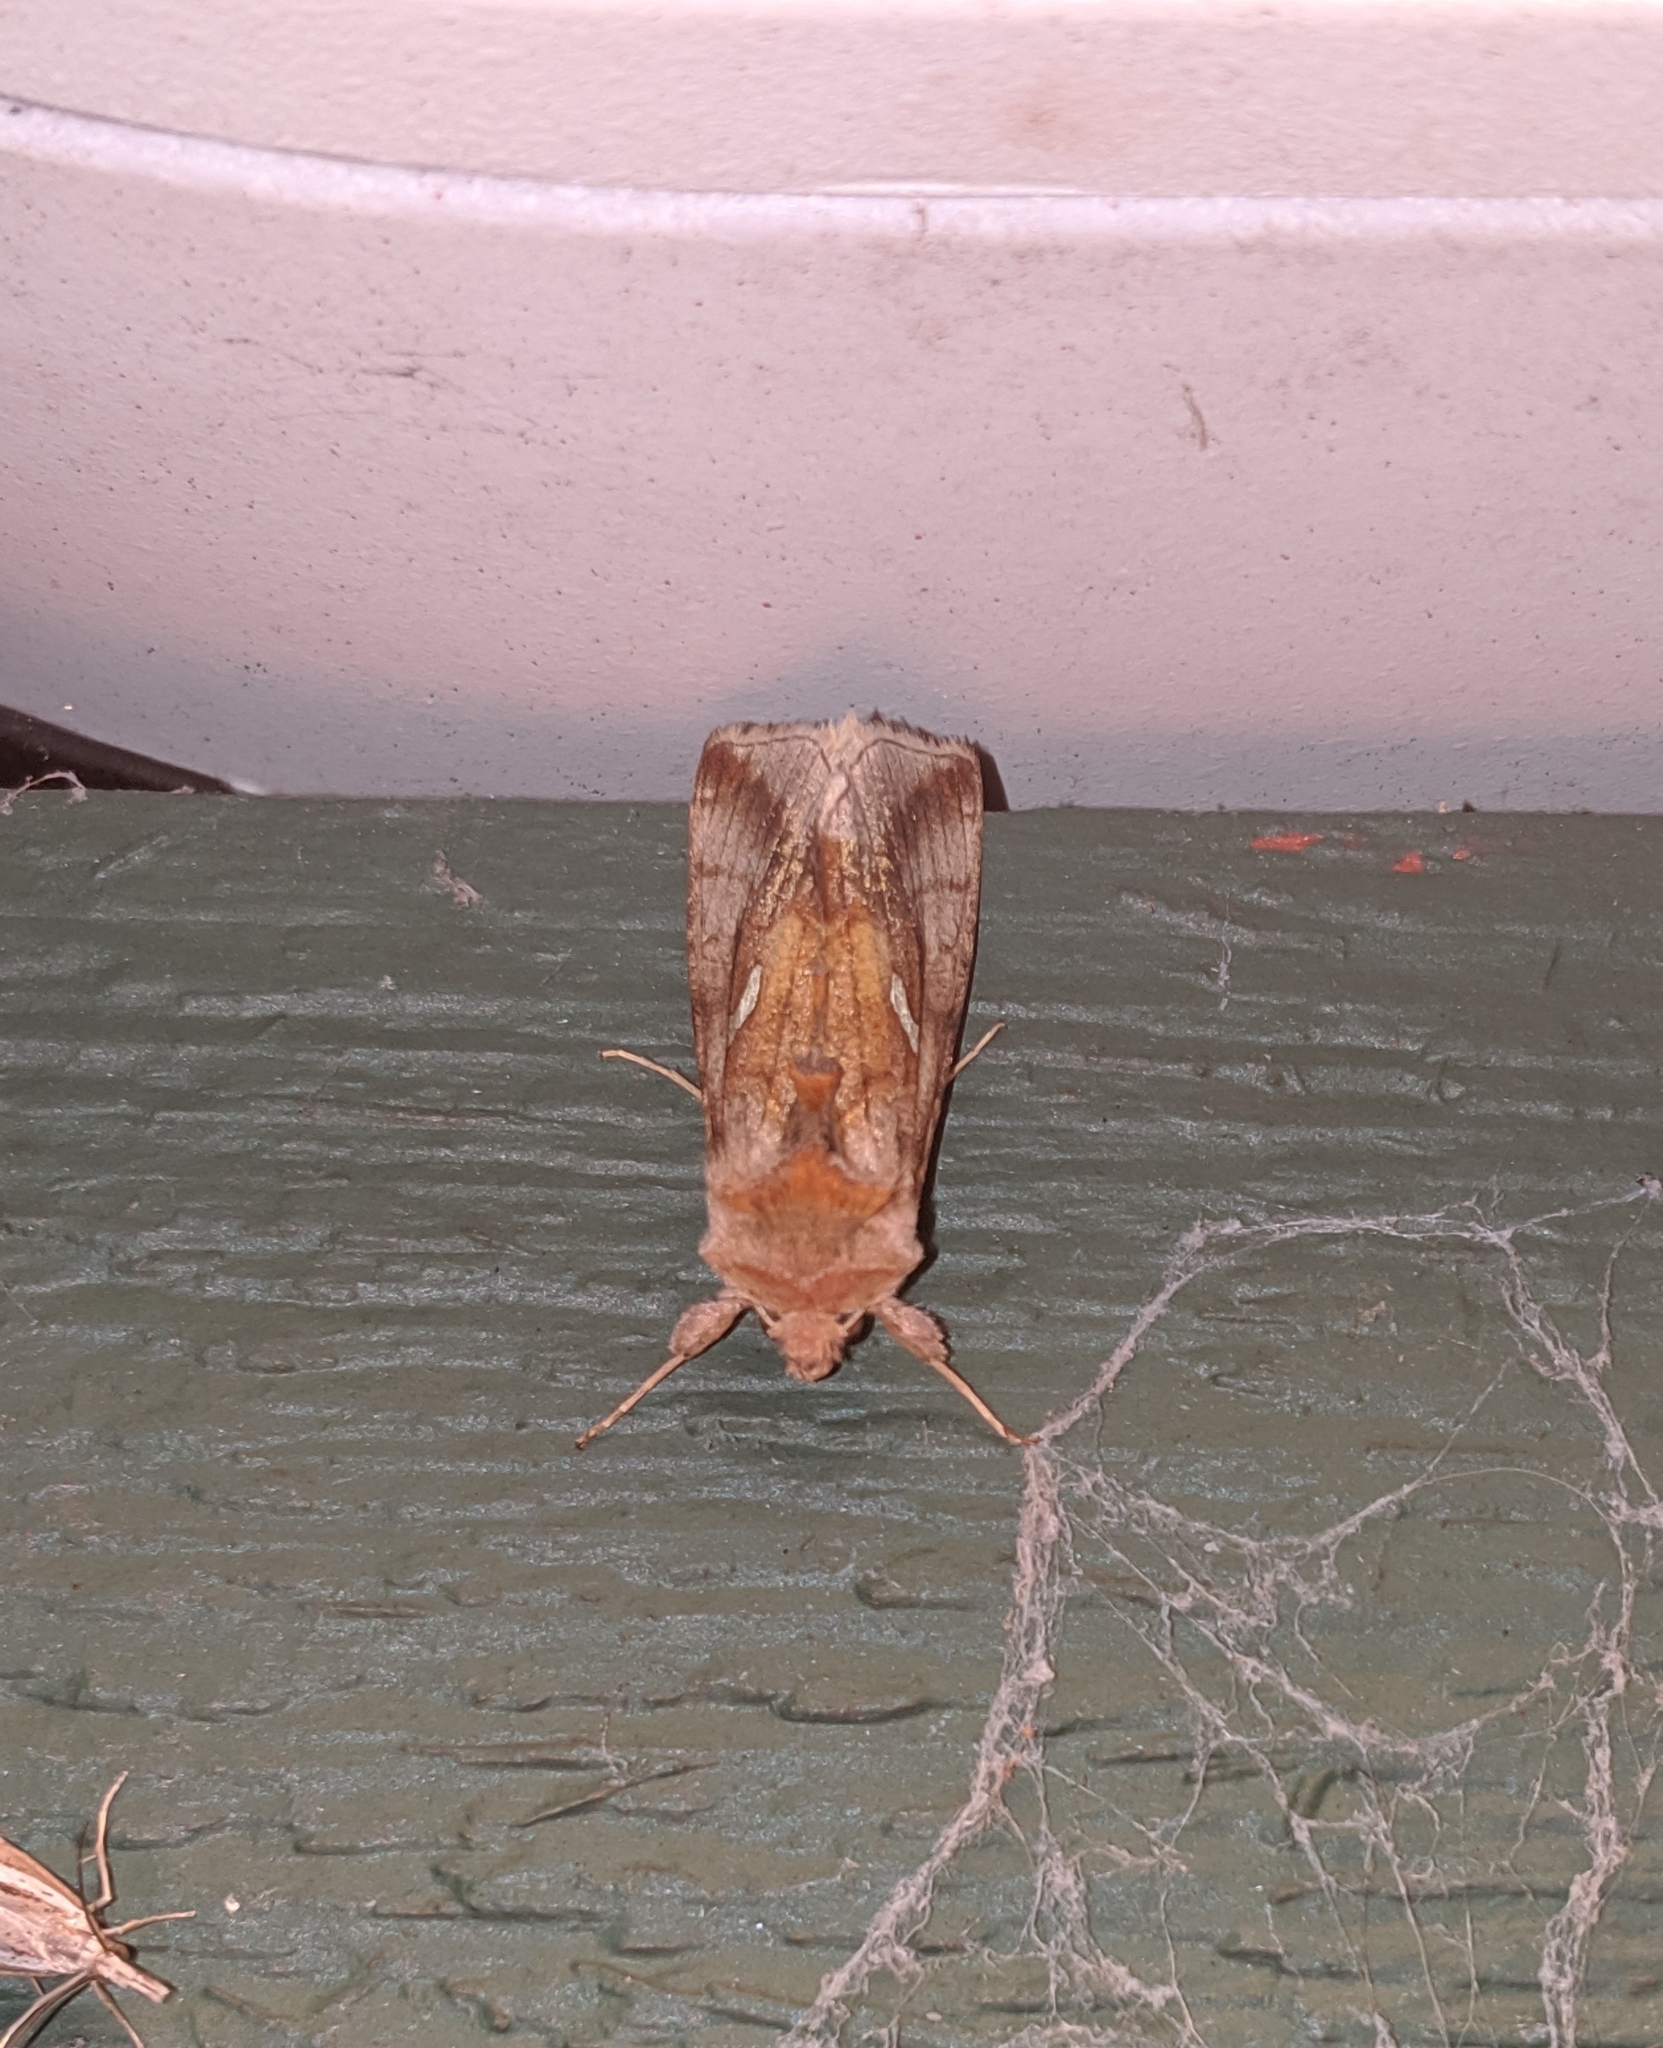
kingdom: Animalia
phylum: Arthropoda
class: Insecta
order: Lepidoptera
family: Noctuidae
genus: Autographa
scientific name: Autographa metallica
